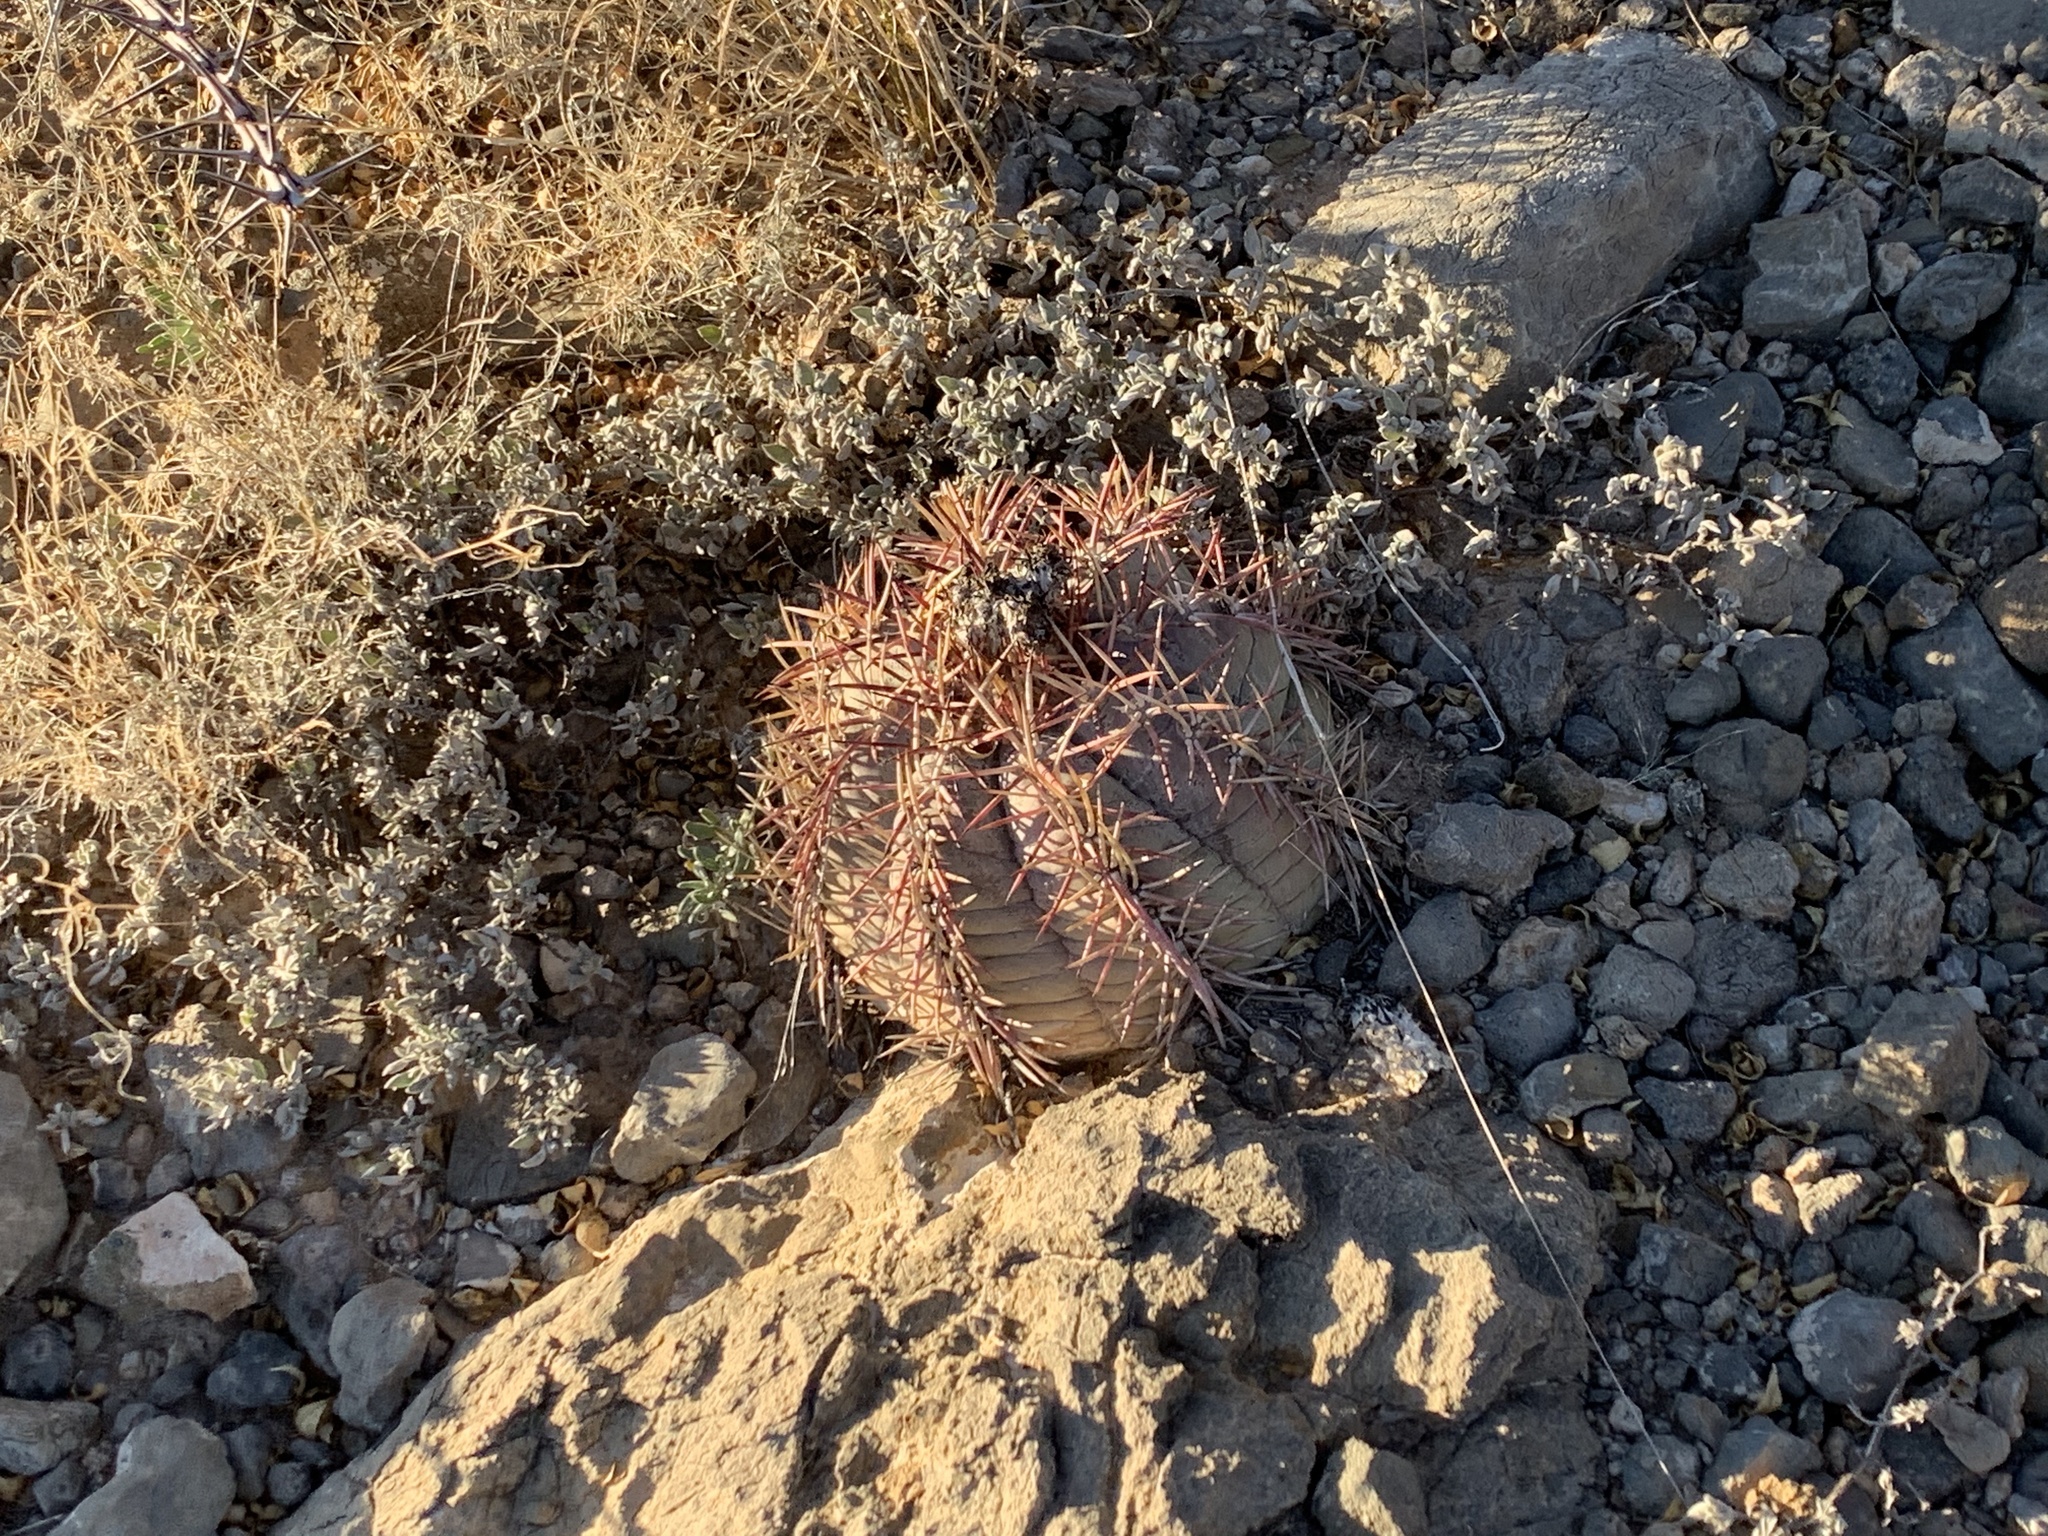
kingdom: Plantae
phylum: Tracheophyta
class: Magnoliopsida
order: Caryophyllales
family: Cactaceae
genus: Echinocactus
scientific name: Echinocactus horizonthalonius
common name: Devilshead
